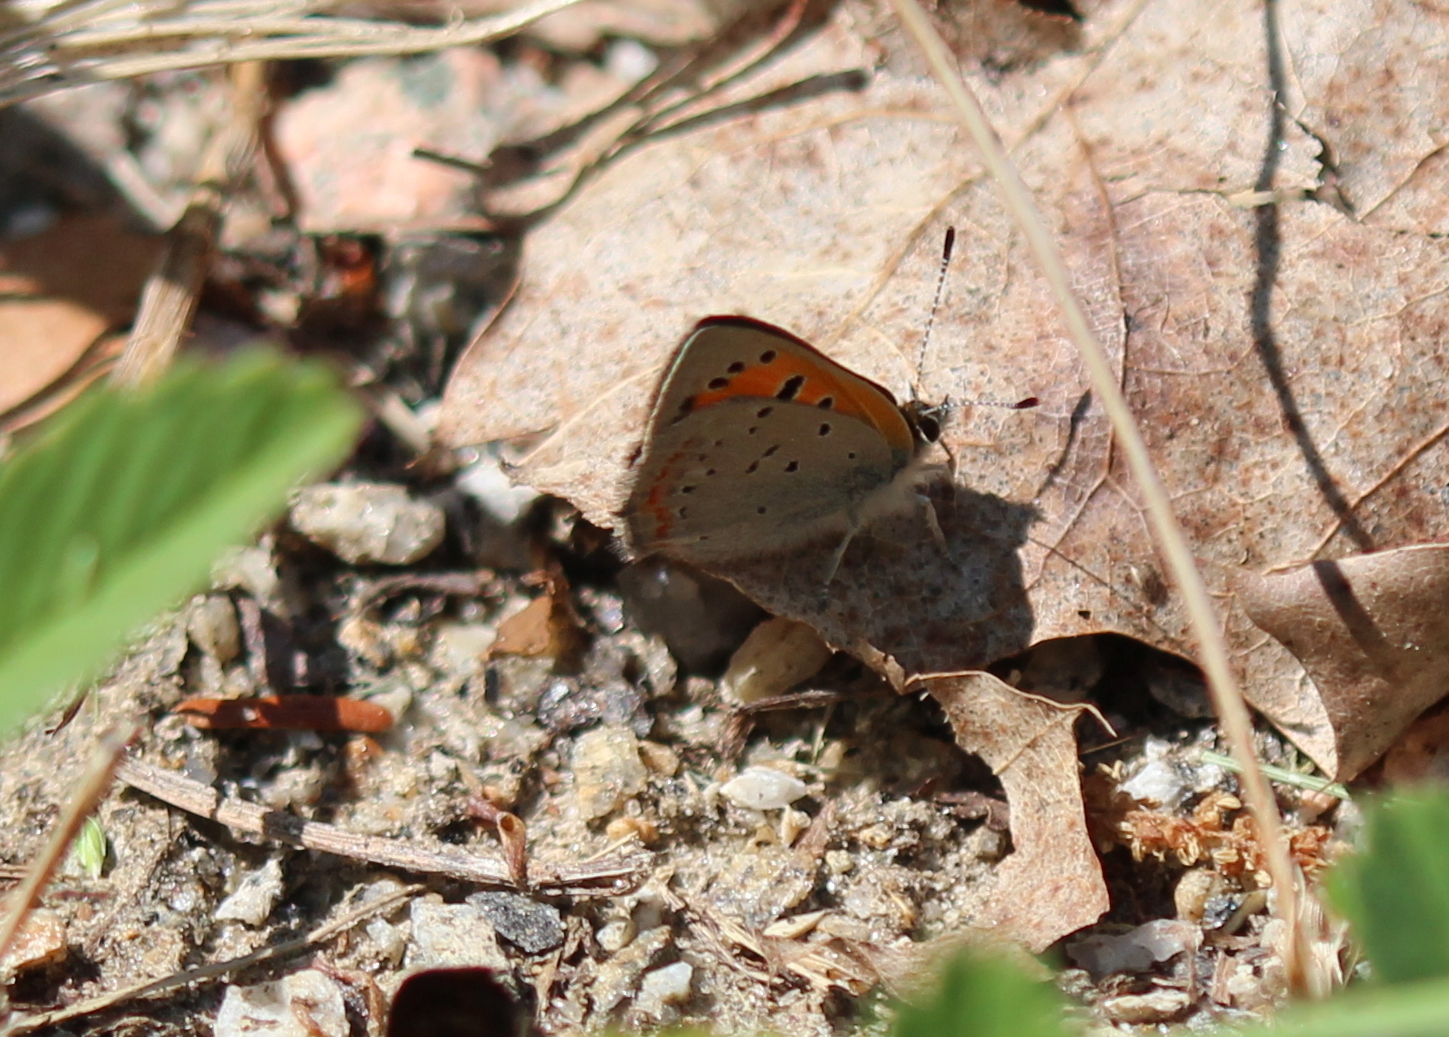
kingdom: Animalia
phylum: Arthropoda
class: Insecta
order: Lepidoptera
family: Lycaenidae
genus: Lycaena
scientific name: Lycaena hypophlaeas
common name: American copper
